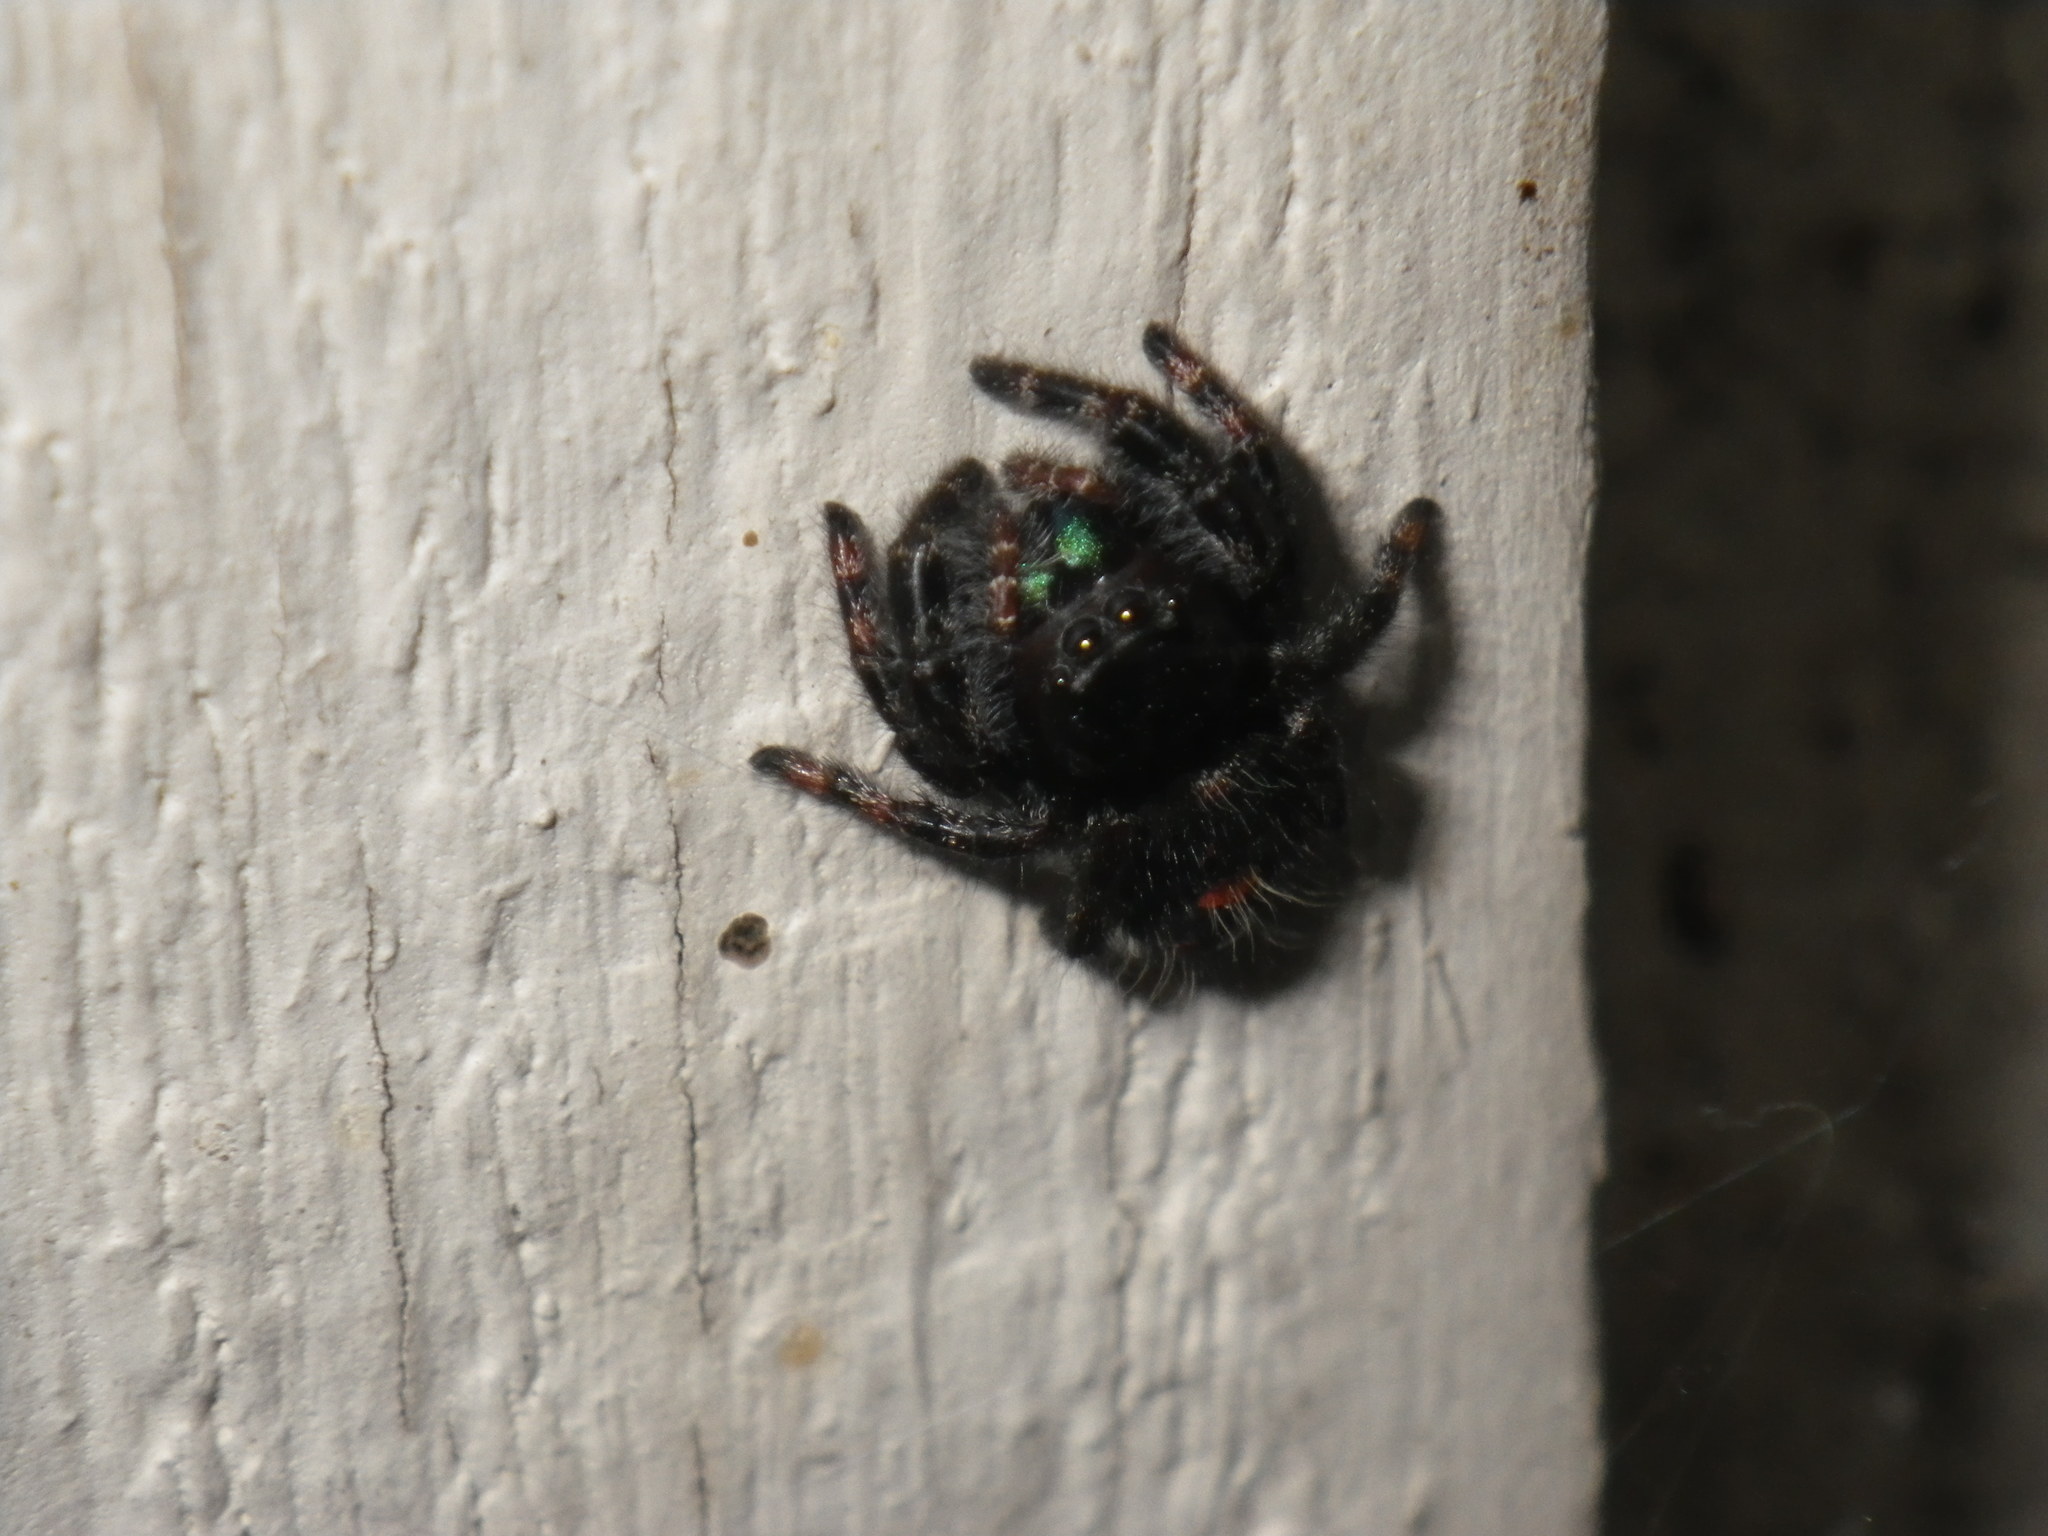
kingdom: Animalia
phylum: Arthropoda
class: Arachnida
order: Araneae
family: Salticidae
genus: Phidippus
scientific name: Phidippus audax
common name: Bold jumper
